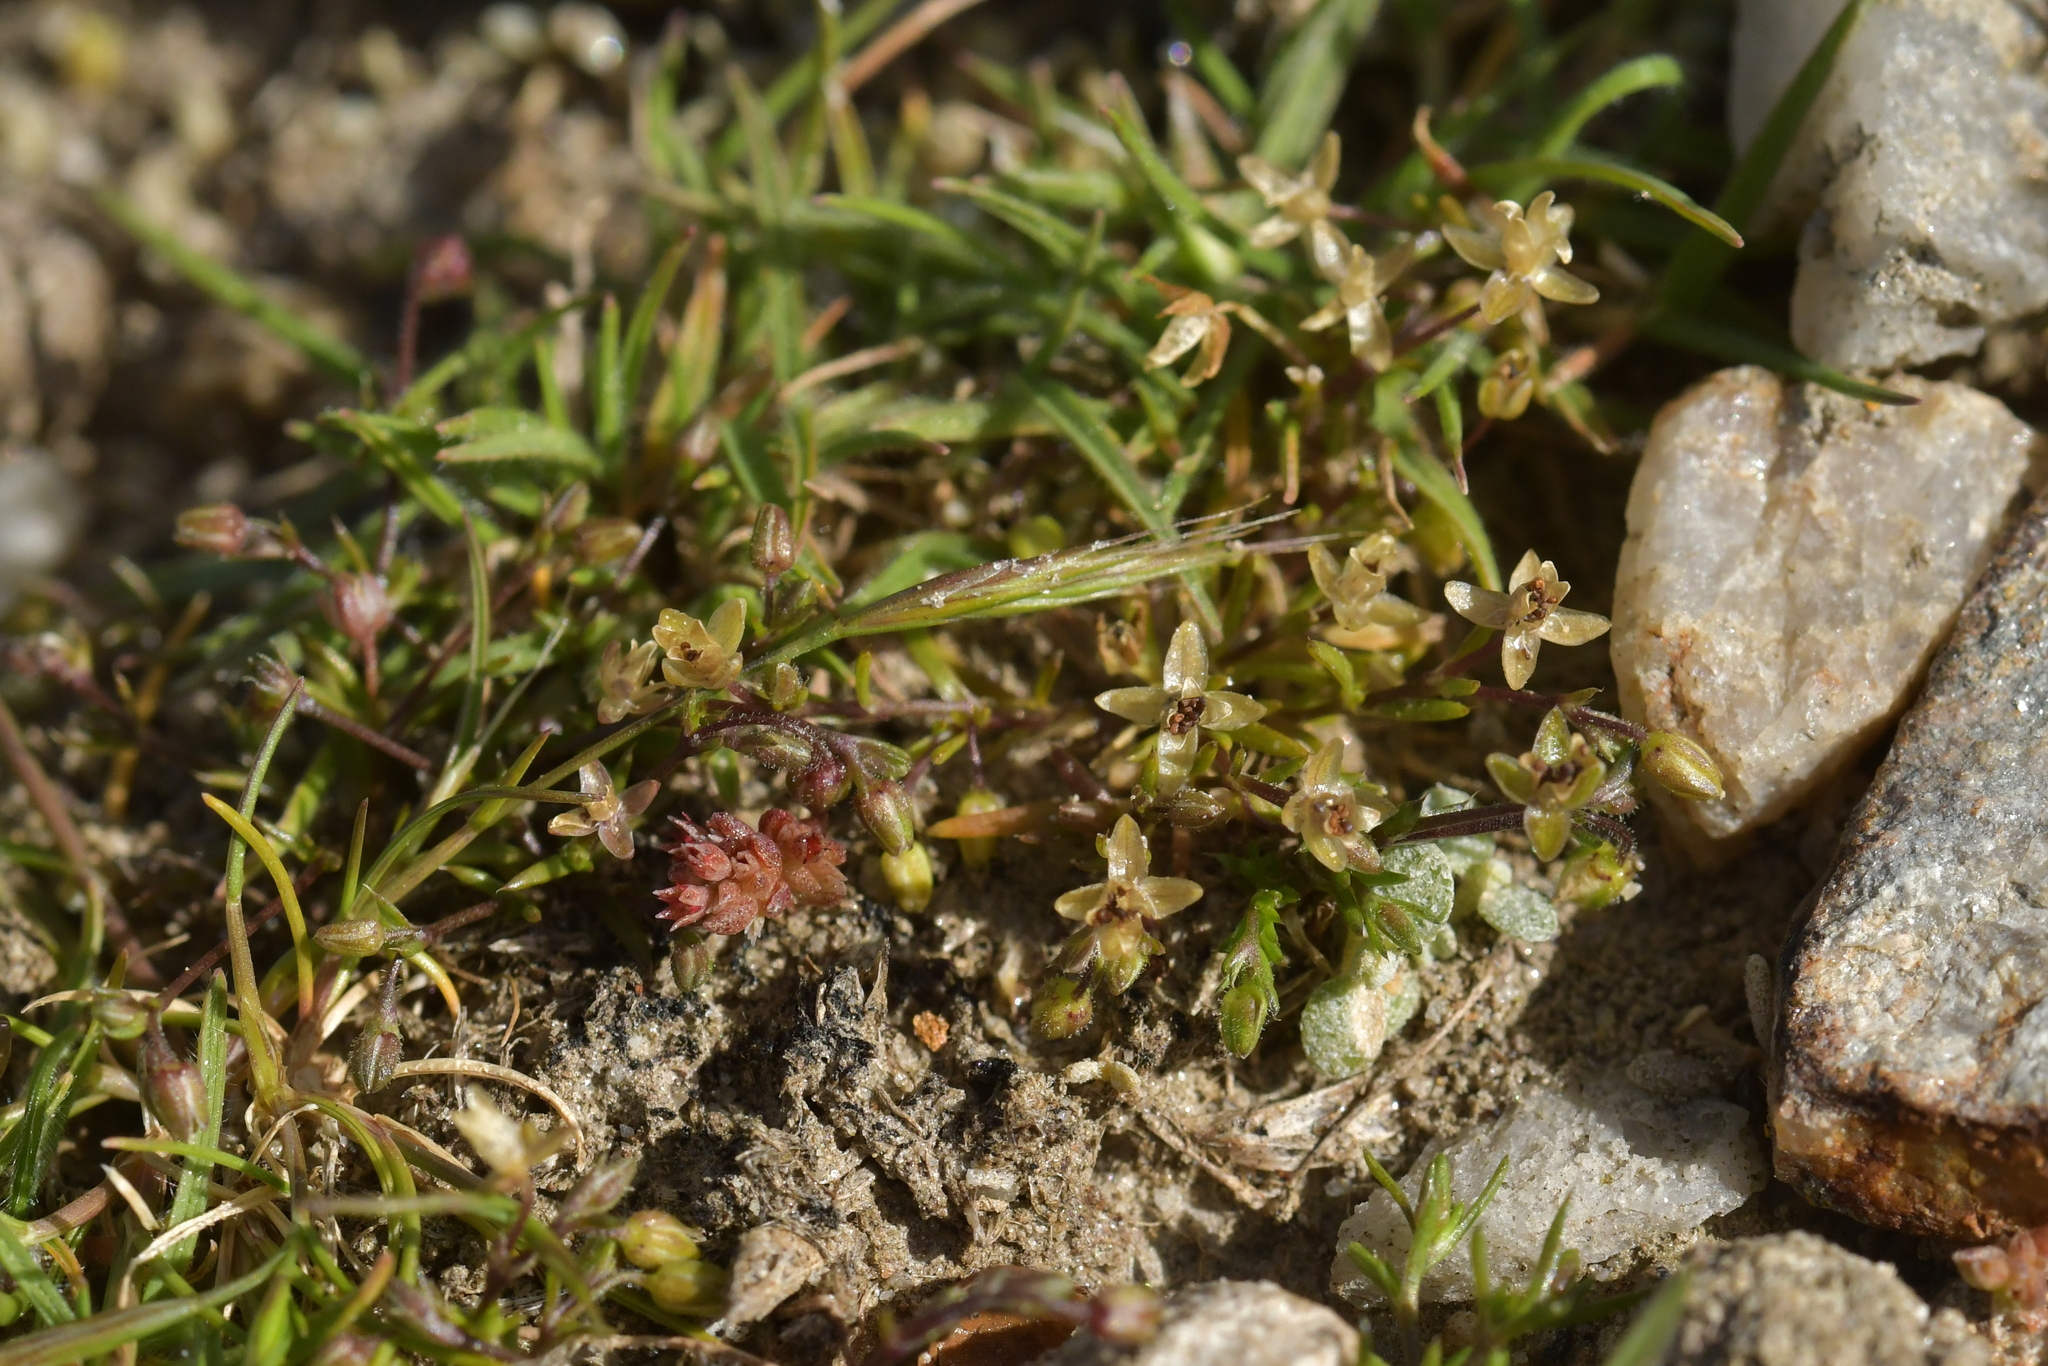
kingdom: Plantae
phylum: Tracheophyta
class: Magnoliopsida
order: Caryophyllales
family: Caryophyllaceae
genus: Sagina
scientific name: Sagina apetala
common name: Annual pearlwort
